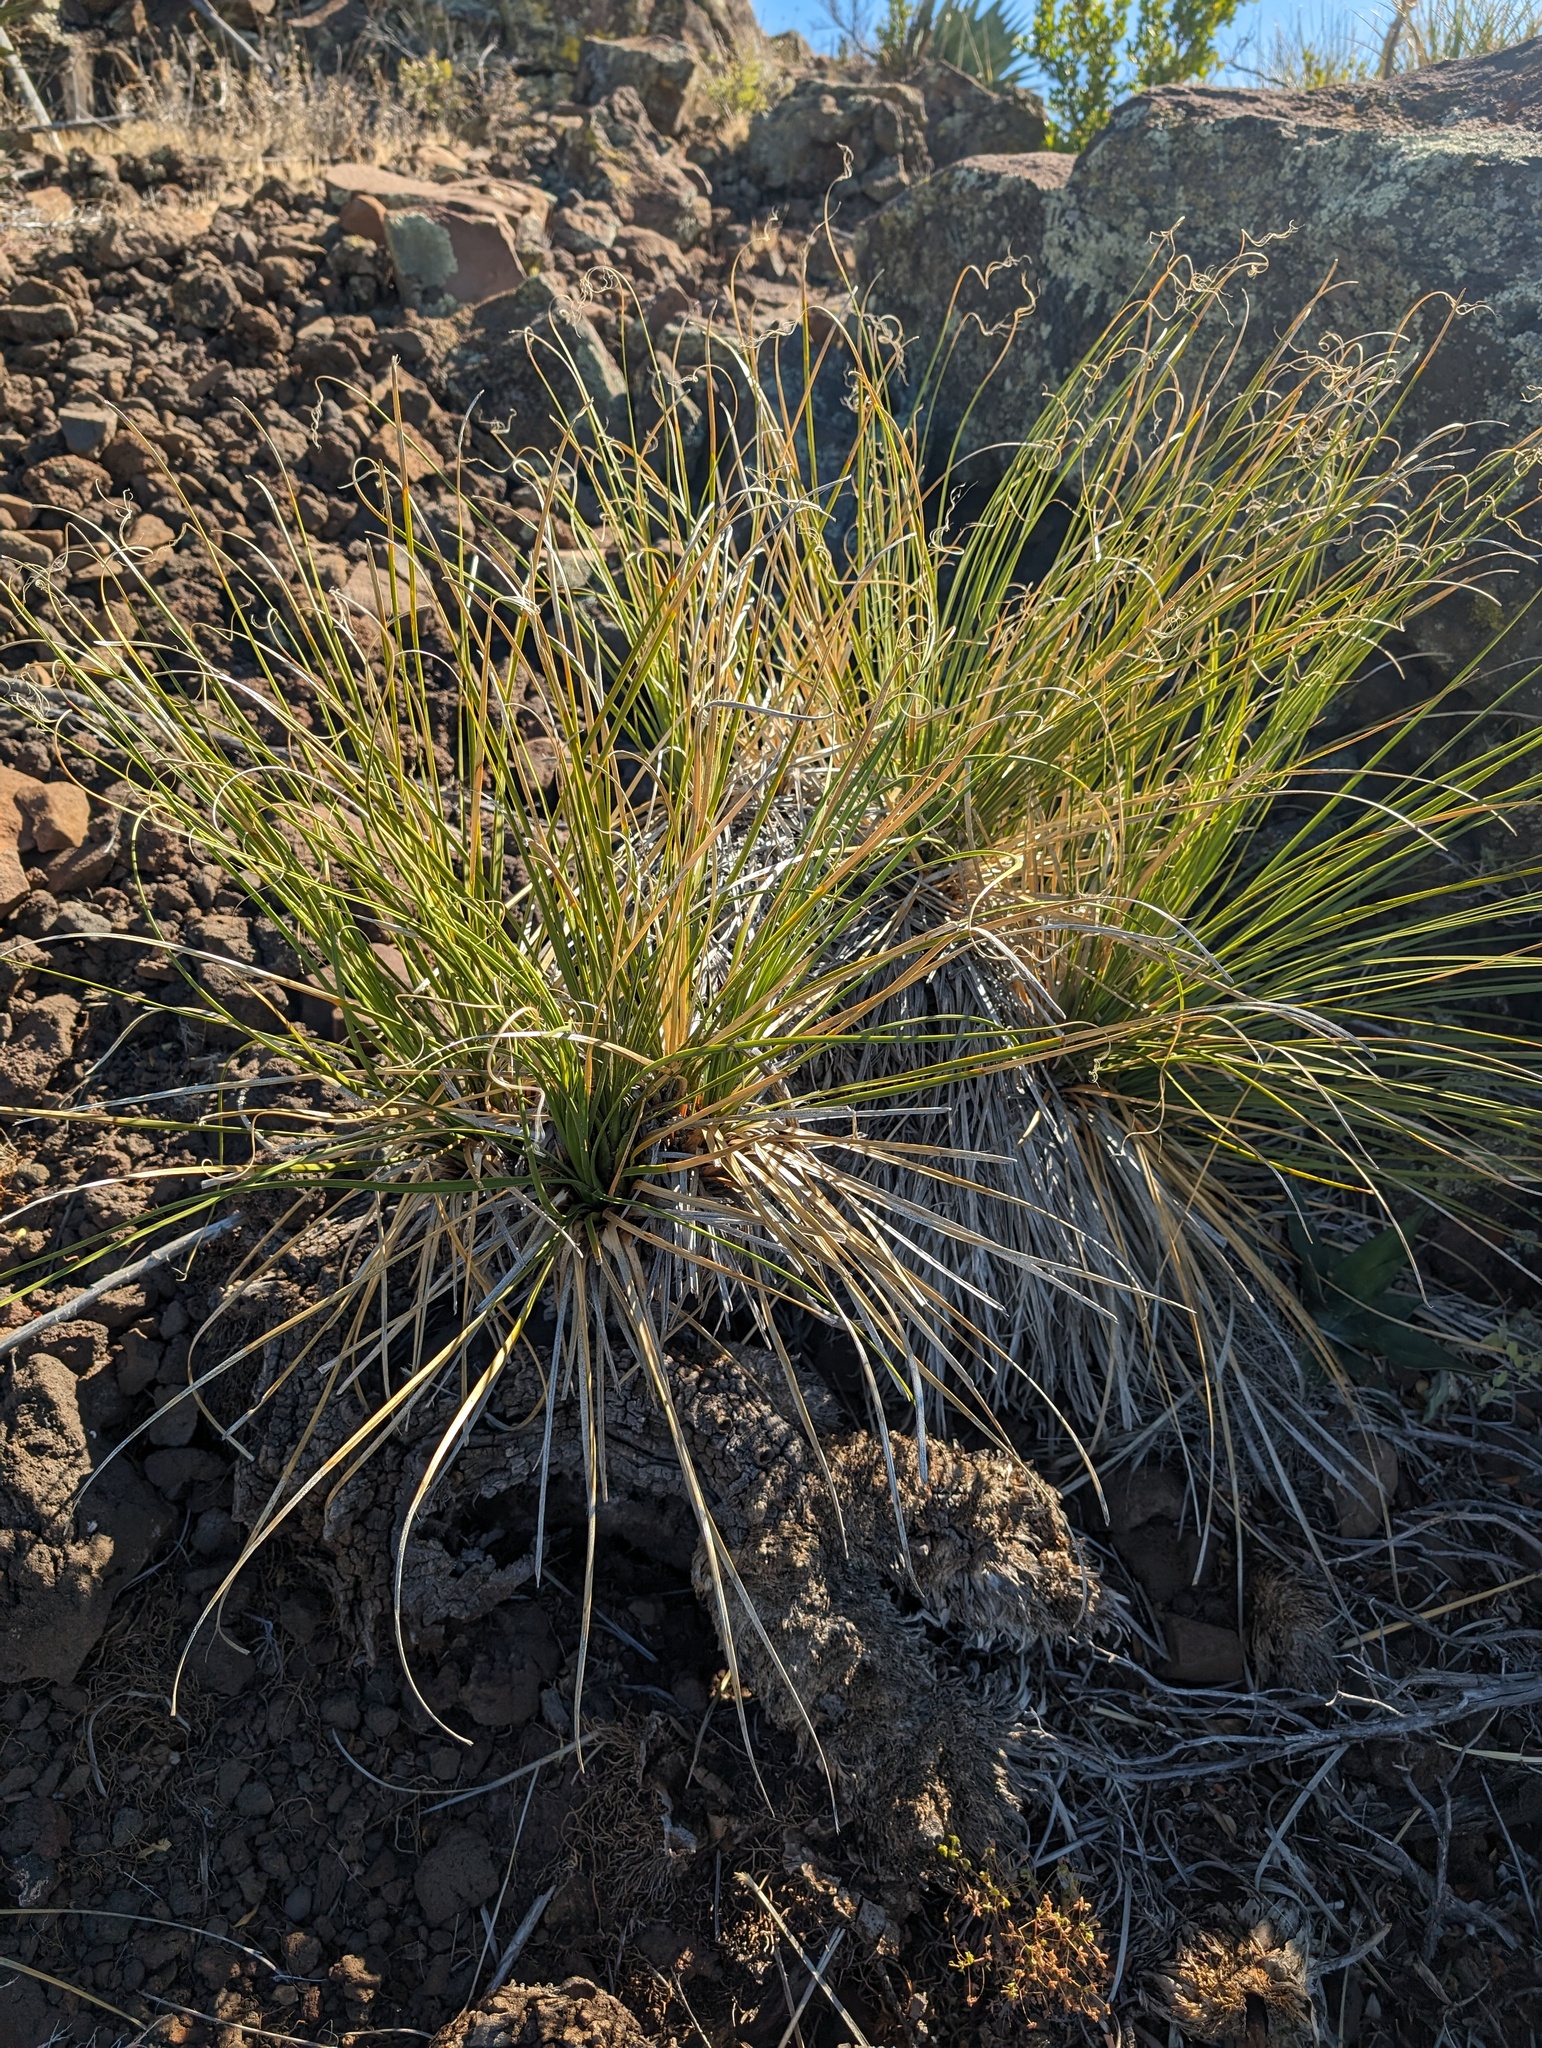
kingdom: Plantae
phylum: Tracheophyta
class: Liliopsida
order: Asparagales
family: Asparagaceae
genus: Nolina
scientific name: Nolina palmeri
